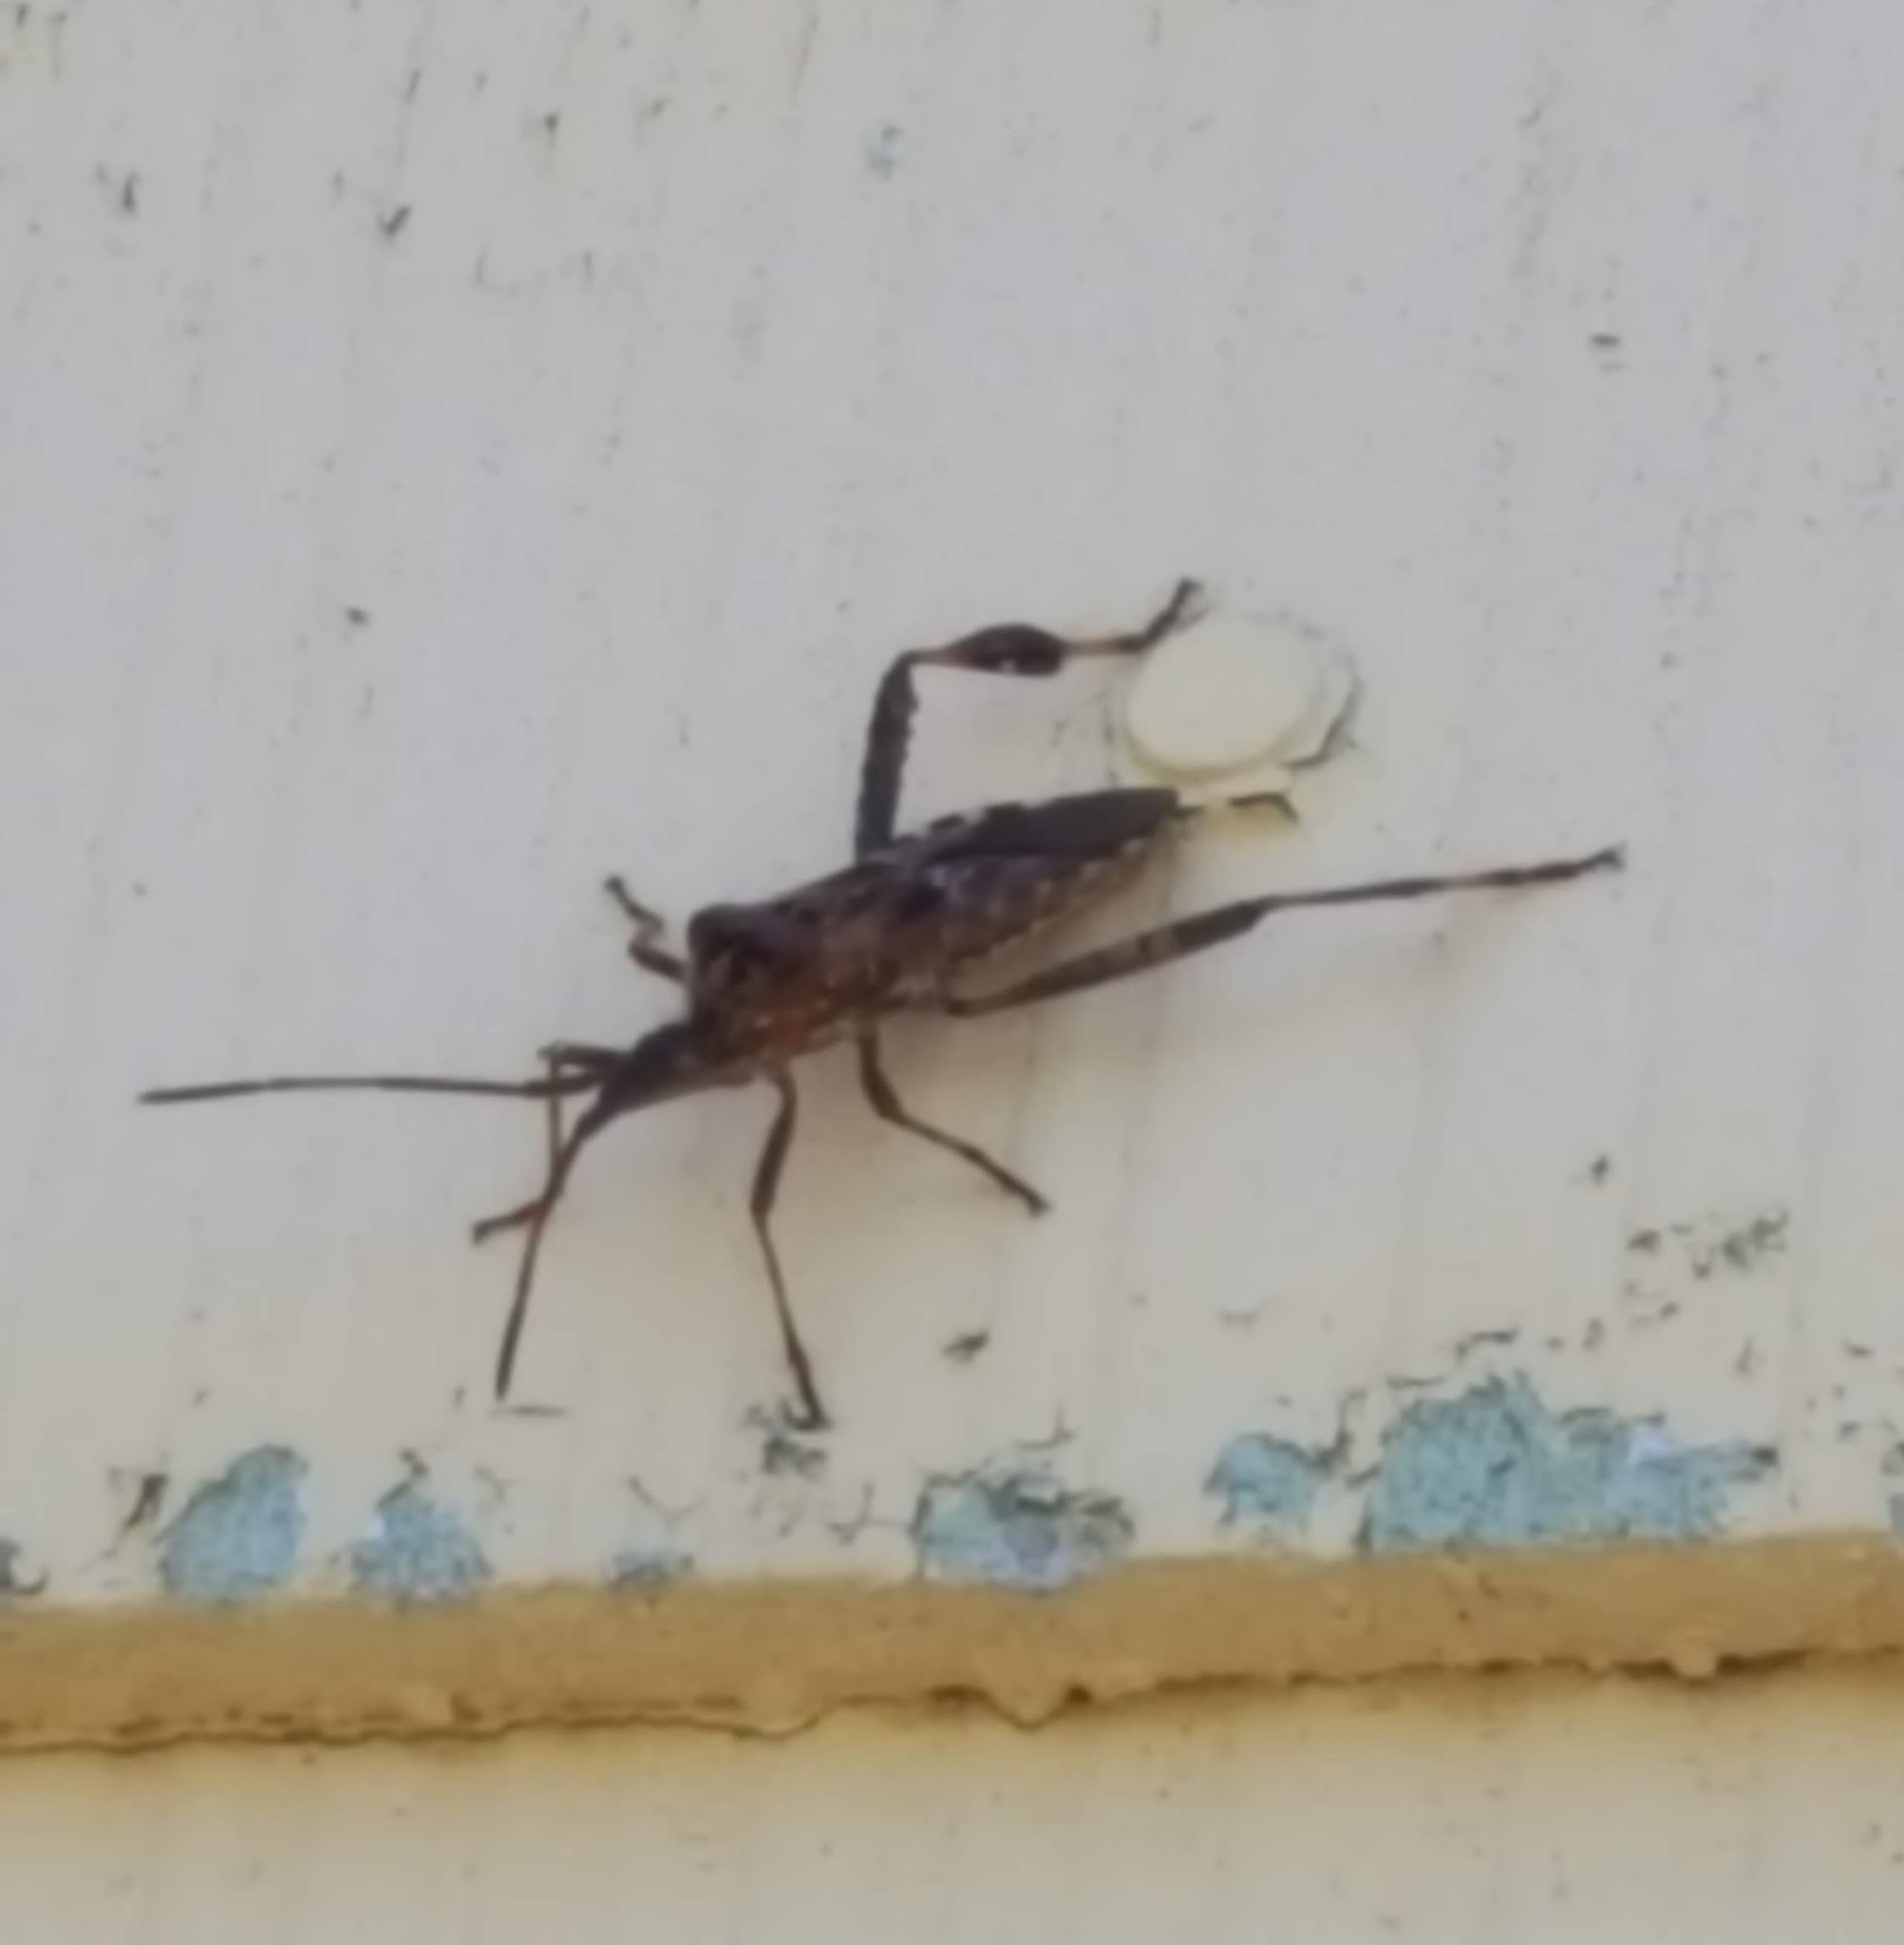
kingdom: Animalia
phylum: Arthropoda
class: Insecta
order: Hemiptera
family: Coreidae
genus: Leptoglossus
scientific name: Leptoglossus occidentalis
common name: Western conifer-seed bug
